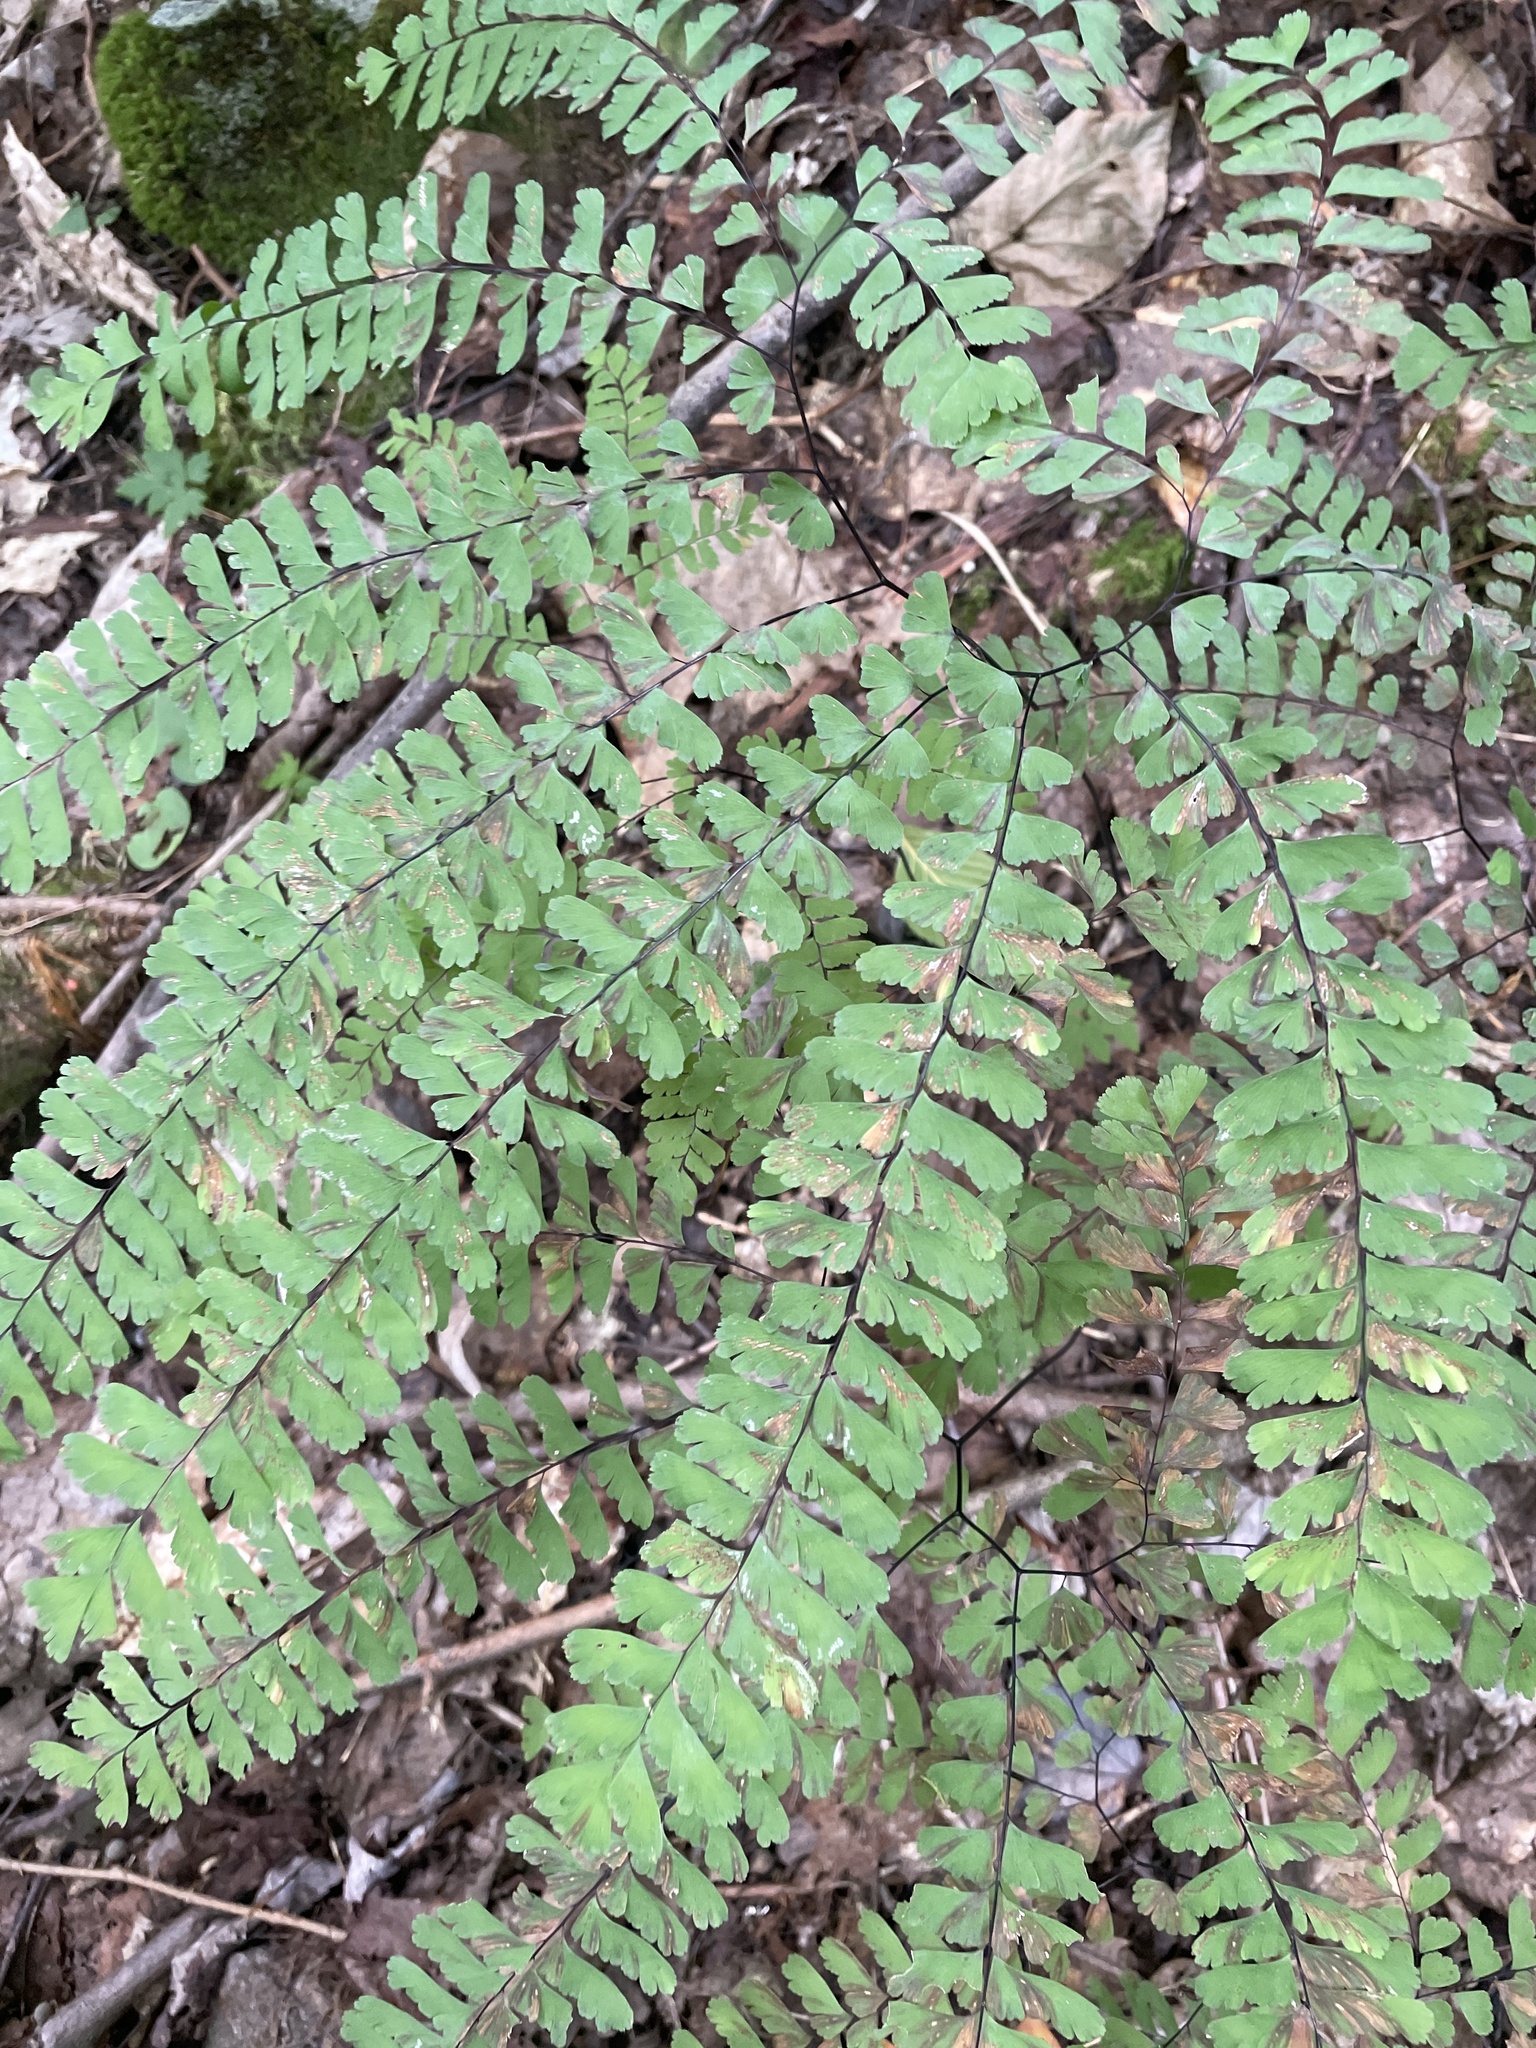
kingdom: Plantae
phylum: Tracheophyta
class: Polypodiopsida
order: Polypodiales
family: Pteridaceae
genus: Adiantum
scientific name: Adiantum pedatum
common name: Five-finger fern
